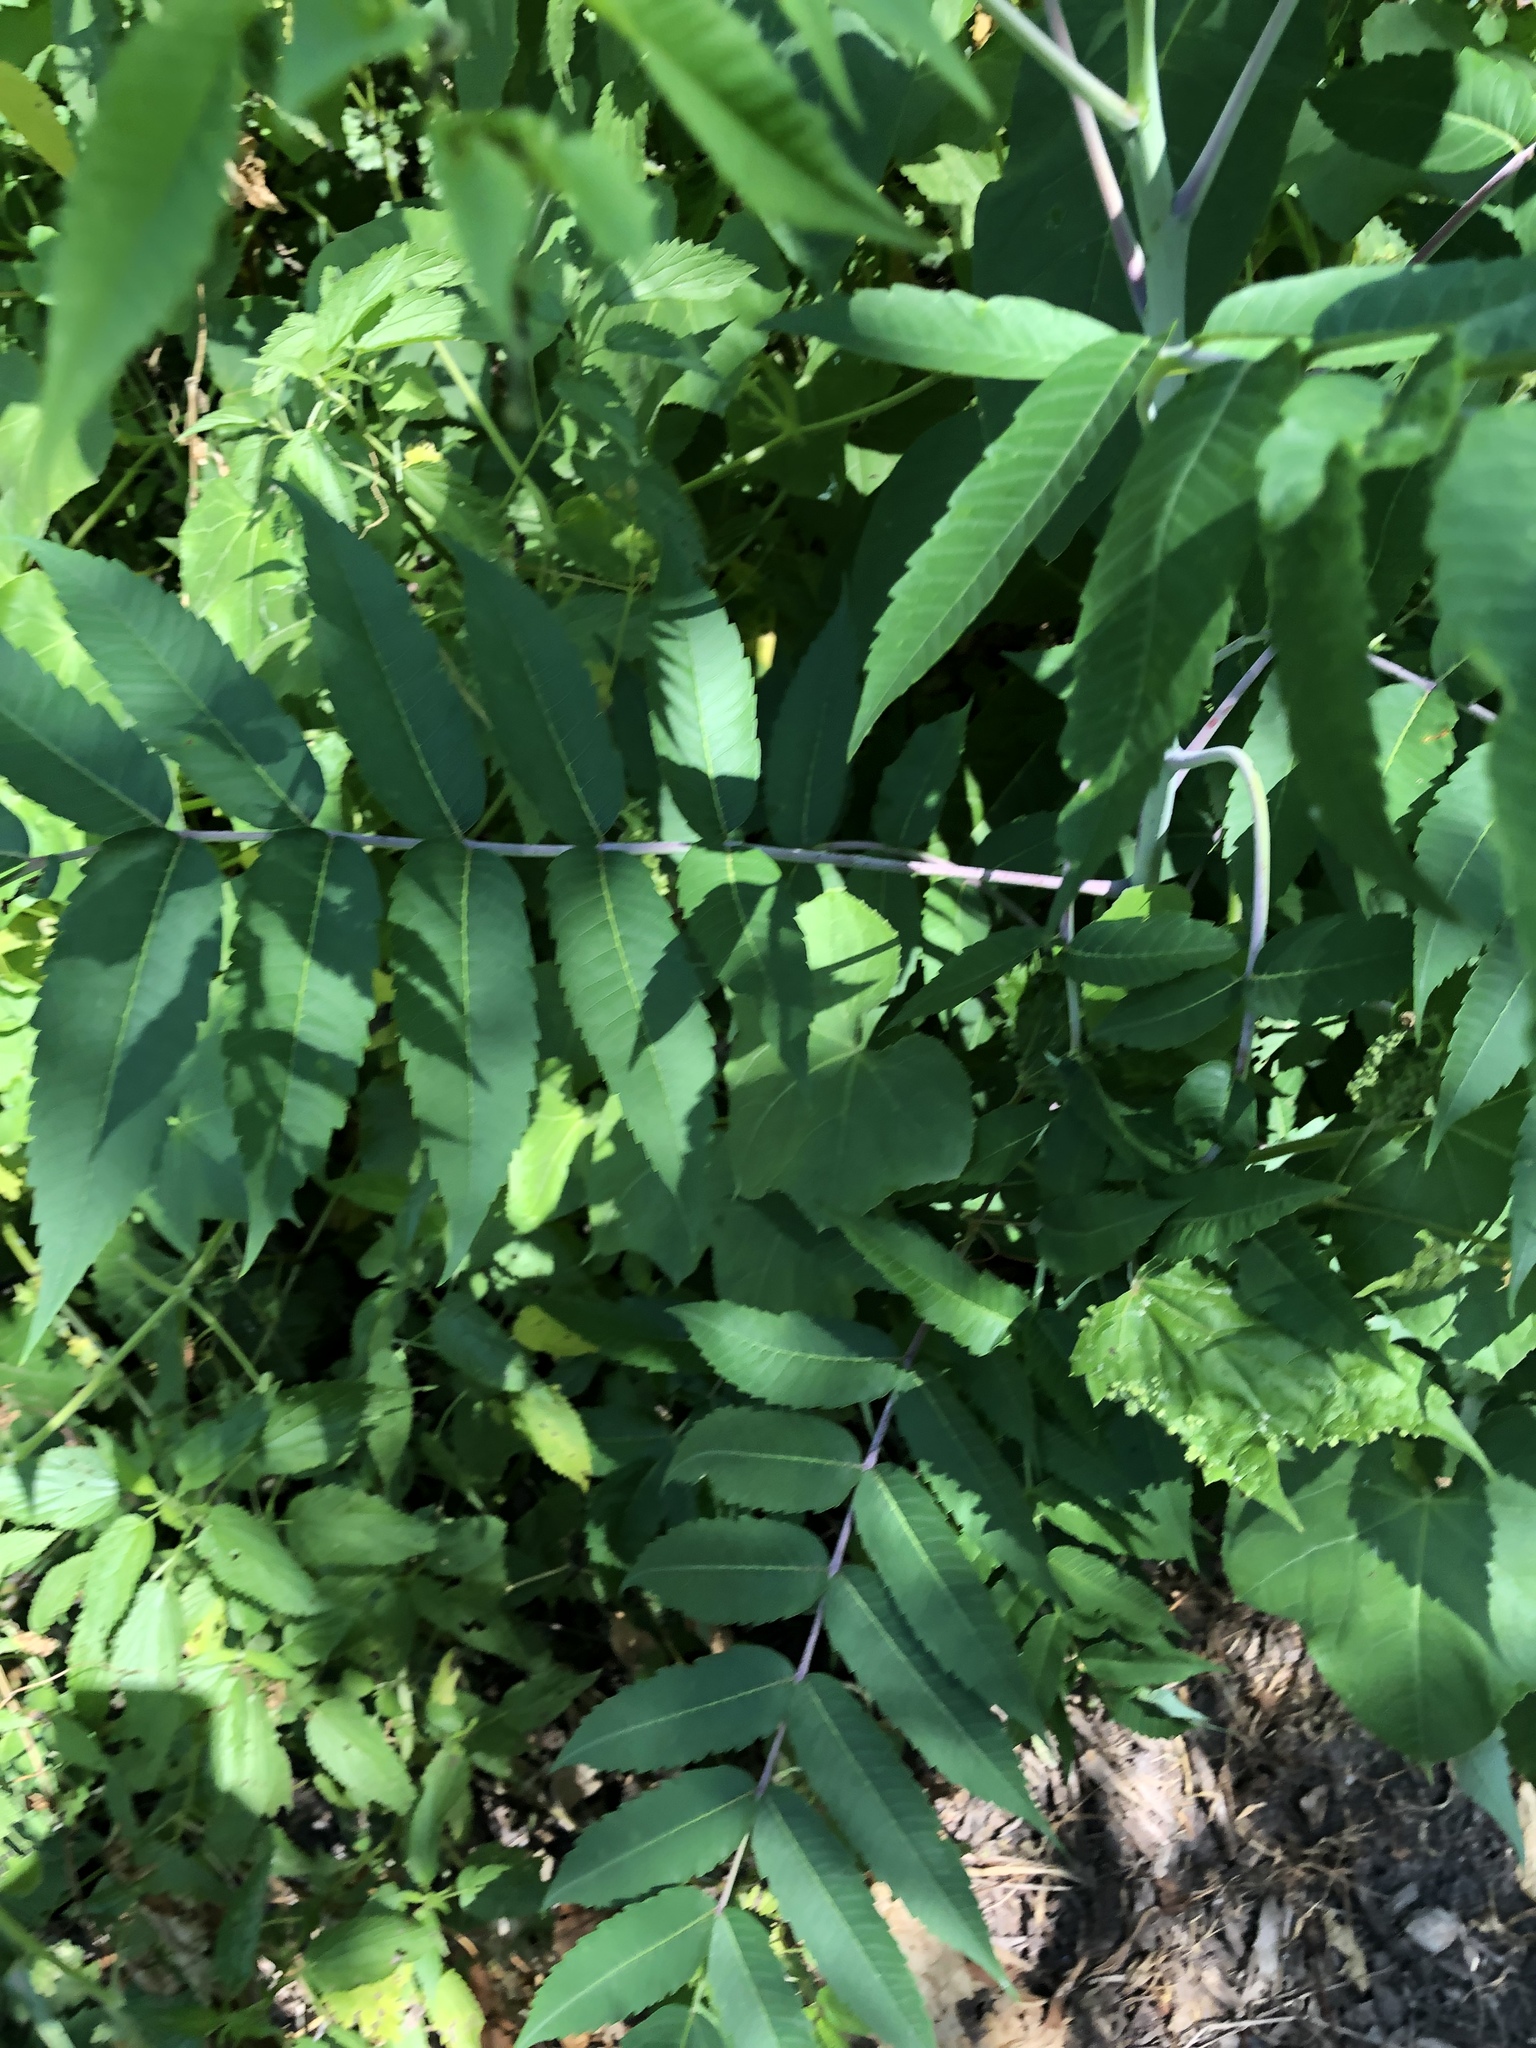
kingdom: Plantae
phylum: Tracheophyta
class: Magnoliopsida
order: Sapindales
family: Anacardiaceae
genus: Rhus
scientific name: Rhus glabra
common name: Scarlet sumac
